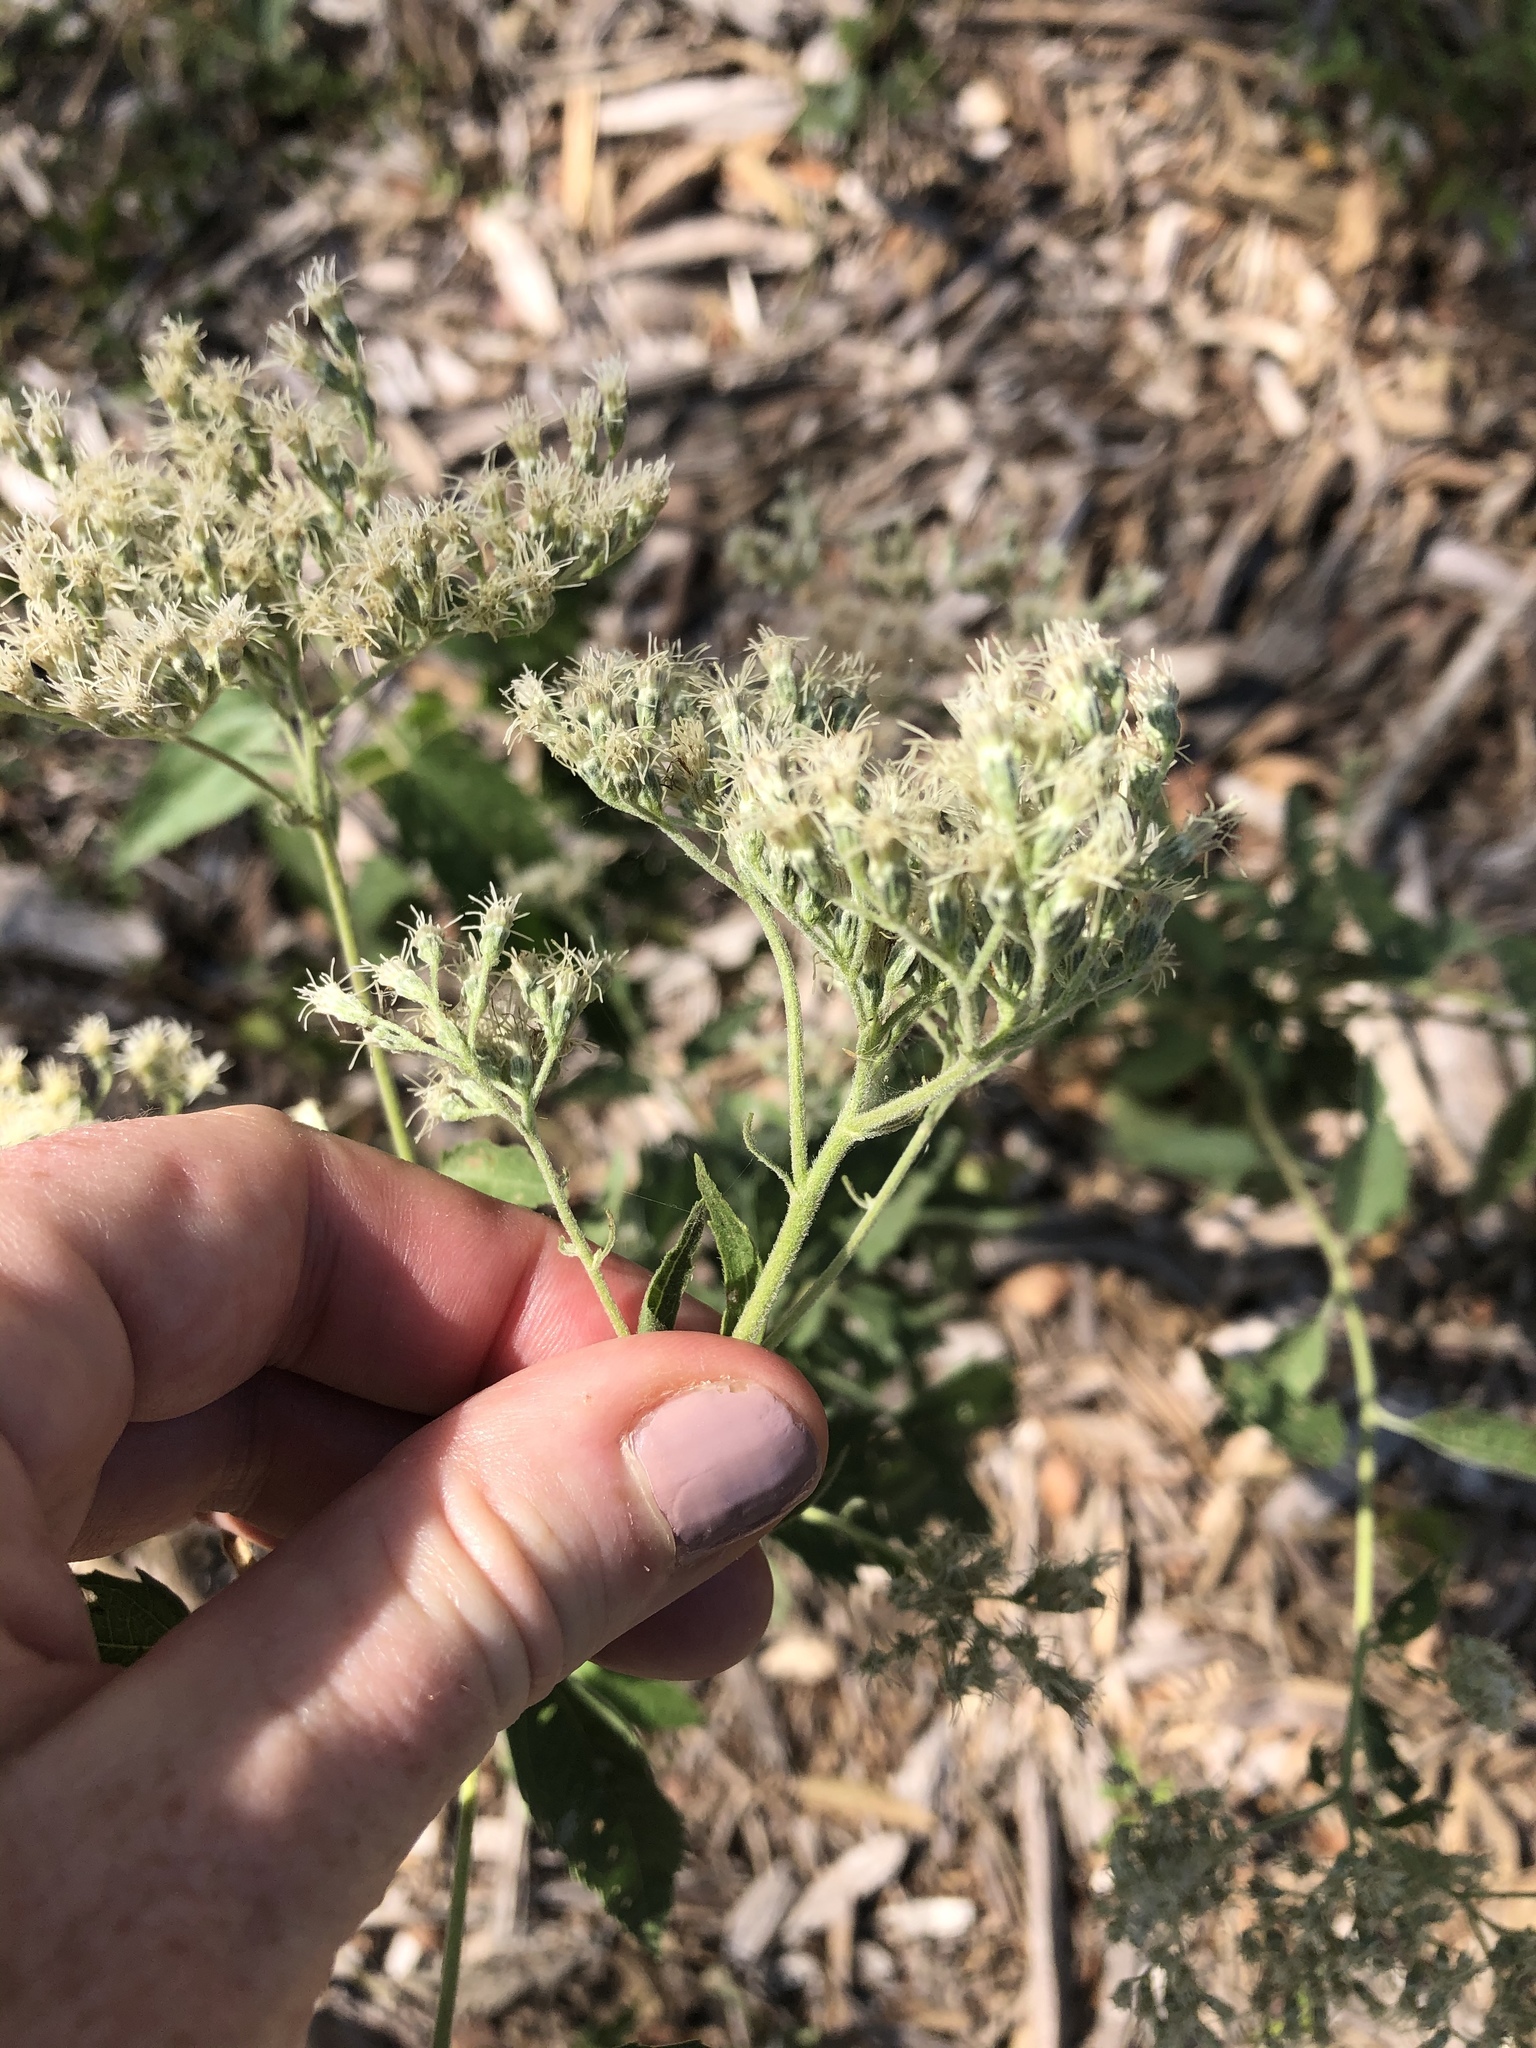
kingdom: Plantae
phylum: Tracheophyta
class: Magnoliopsida
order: Asterales
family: Asteraceae
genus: Eupatorium
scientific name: Eupatorium serotinum
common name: Late boneset
